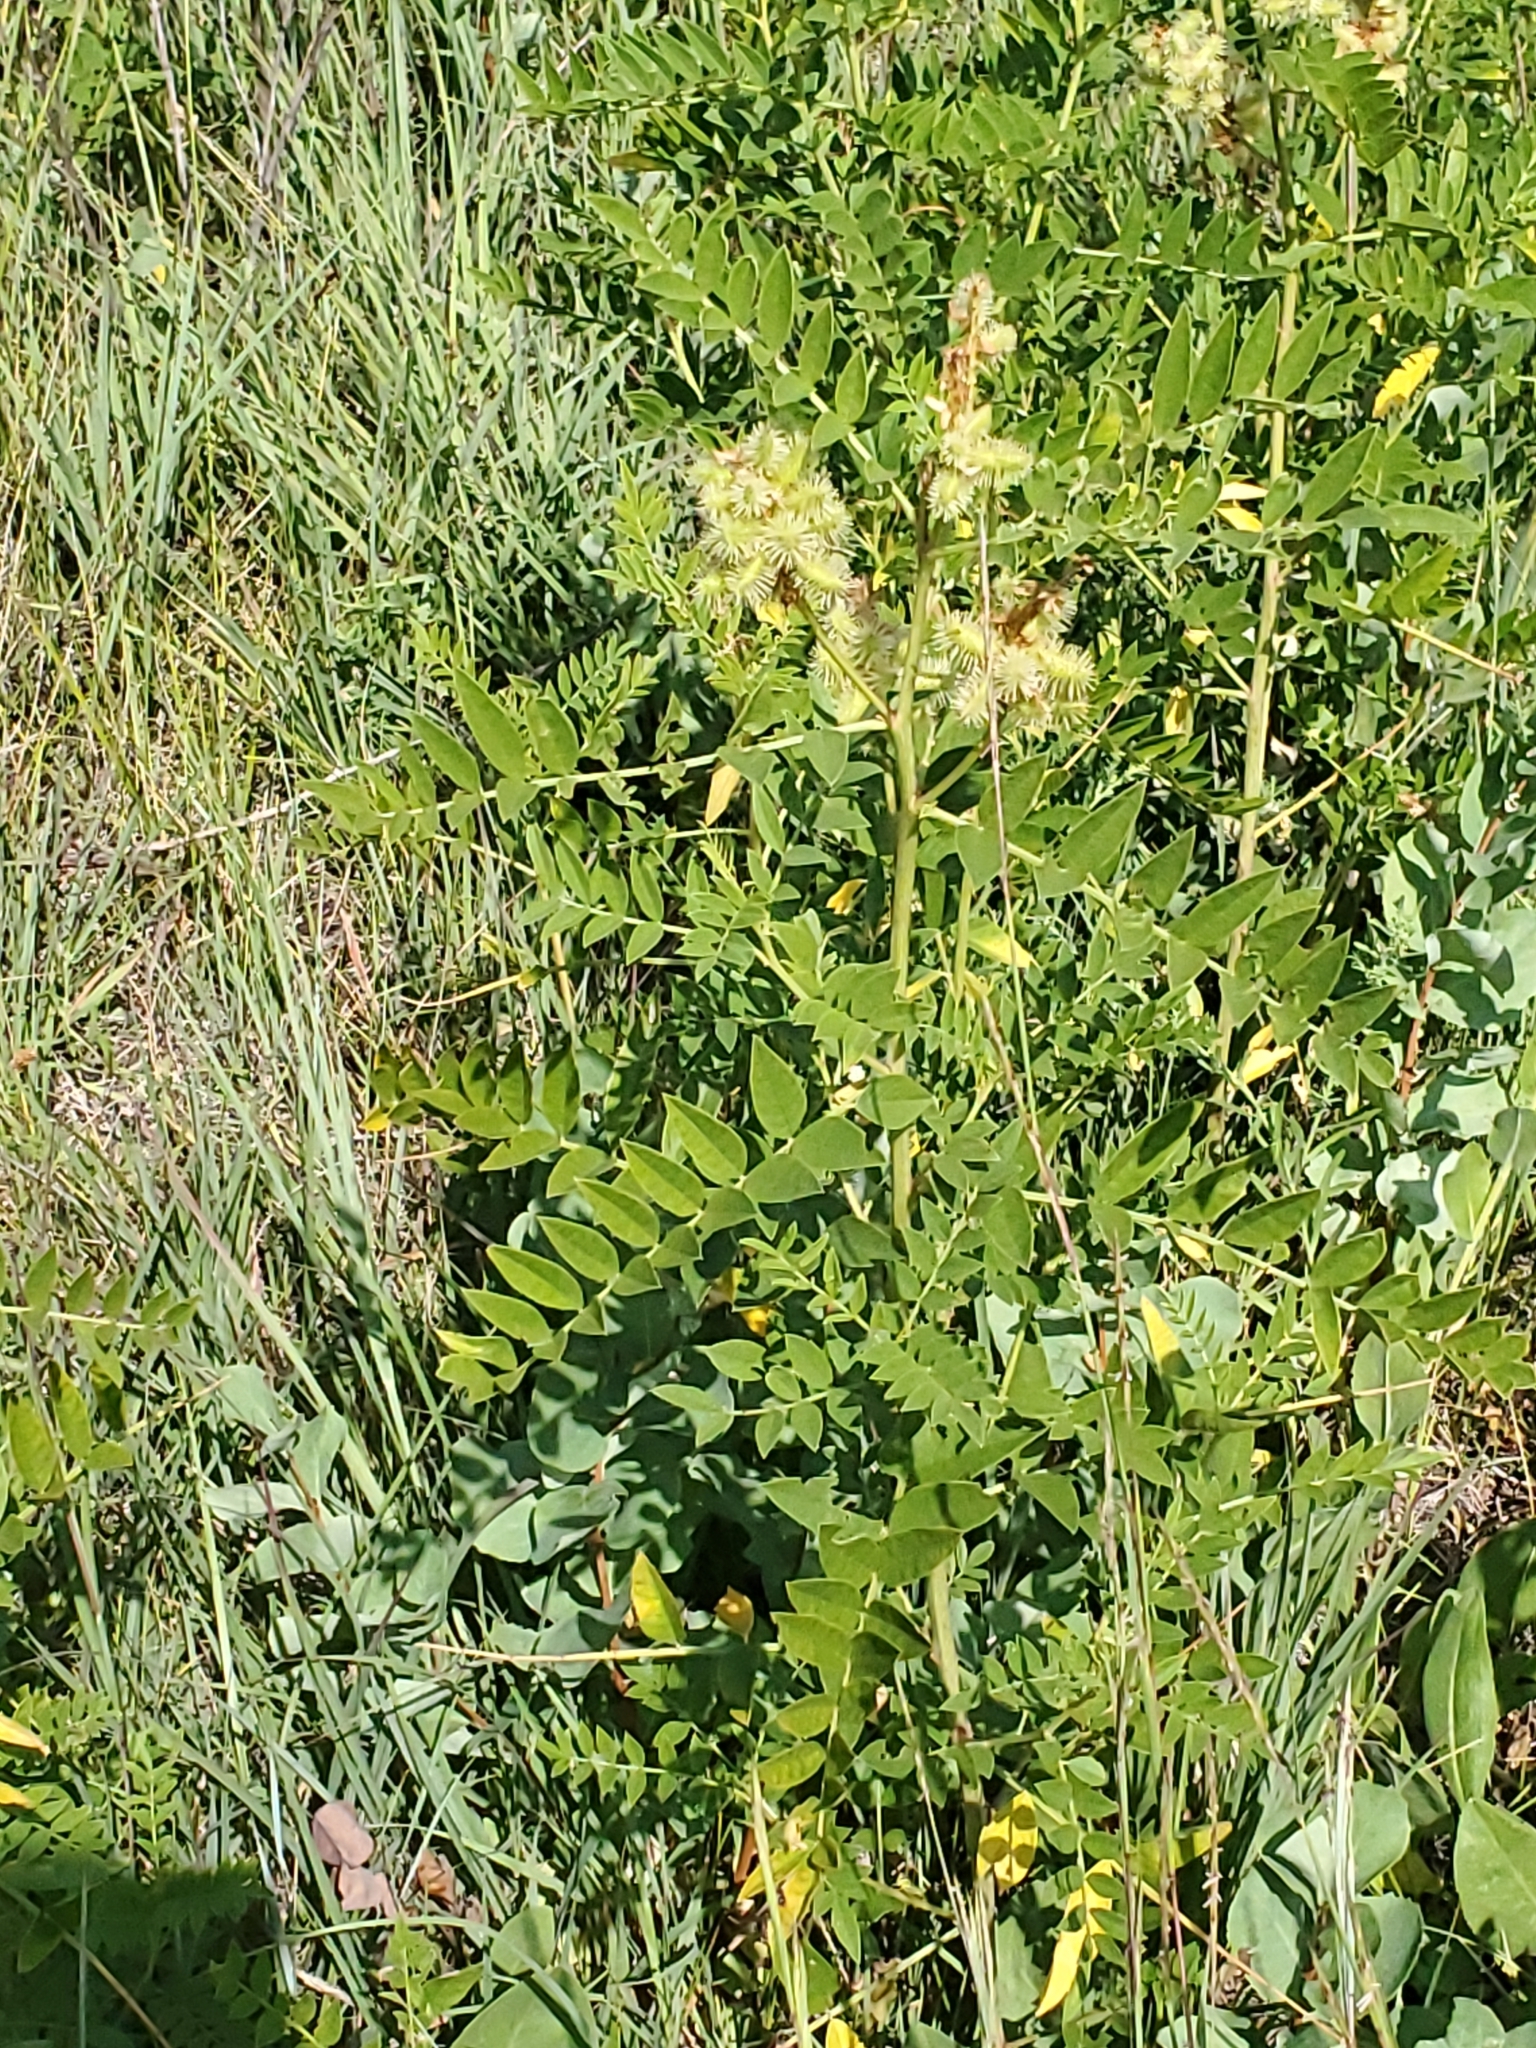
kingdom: Plantae
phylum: Tracheophyta
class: Magnoliopsida
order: Fabales
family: Fabaceae
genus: Glycyrrhiza
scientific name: Glycyrrhiza lepidota
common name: American liquorice
